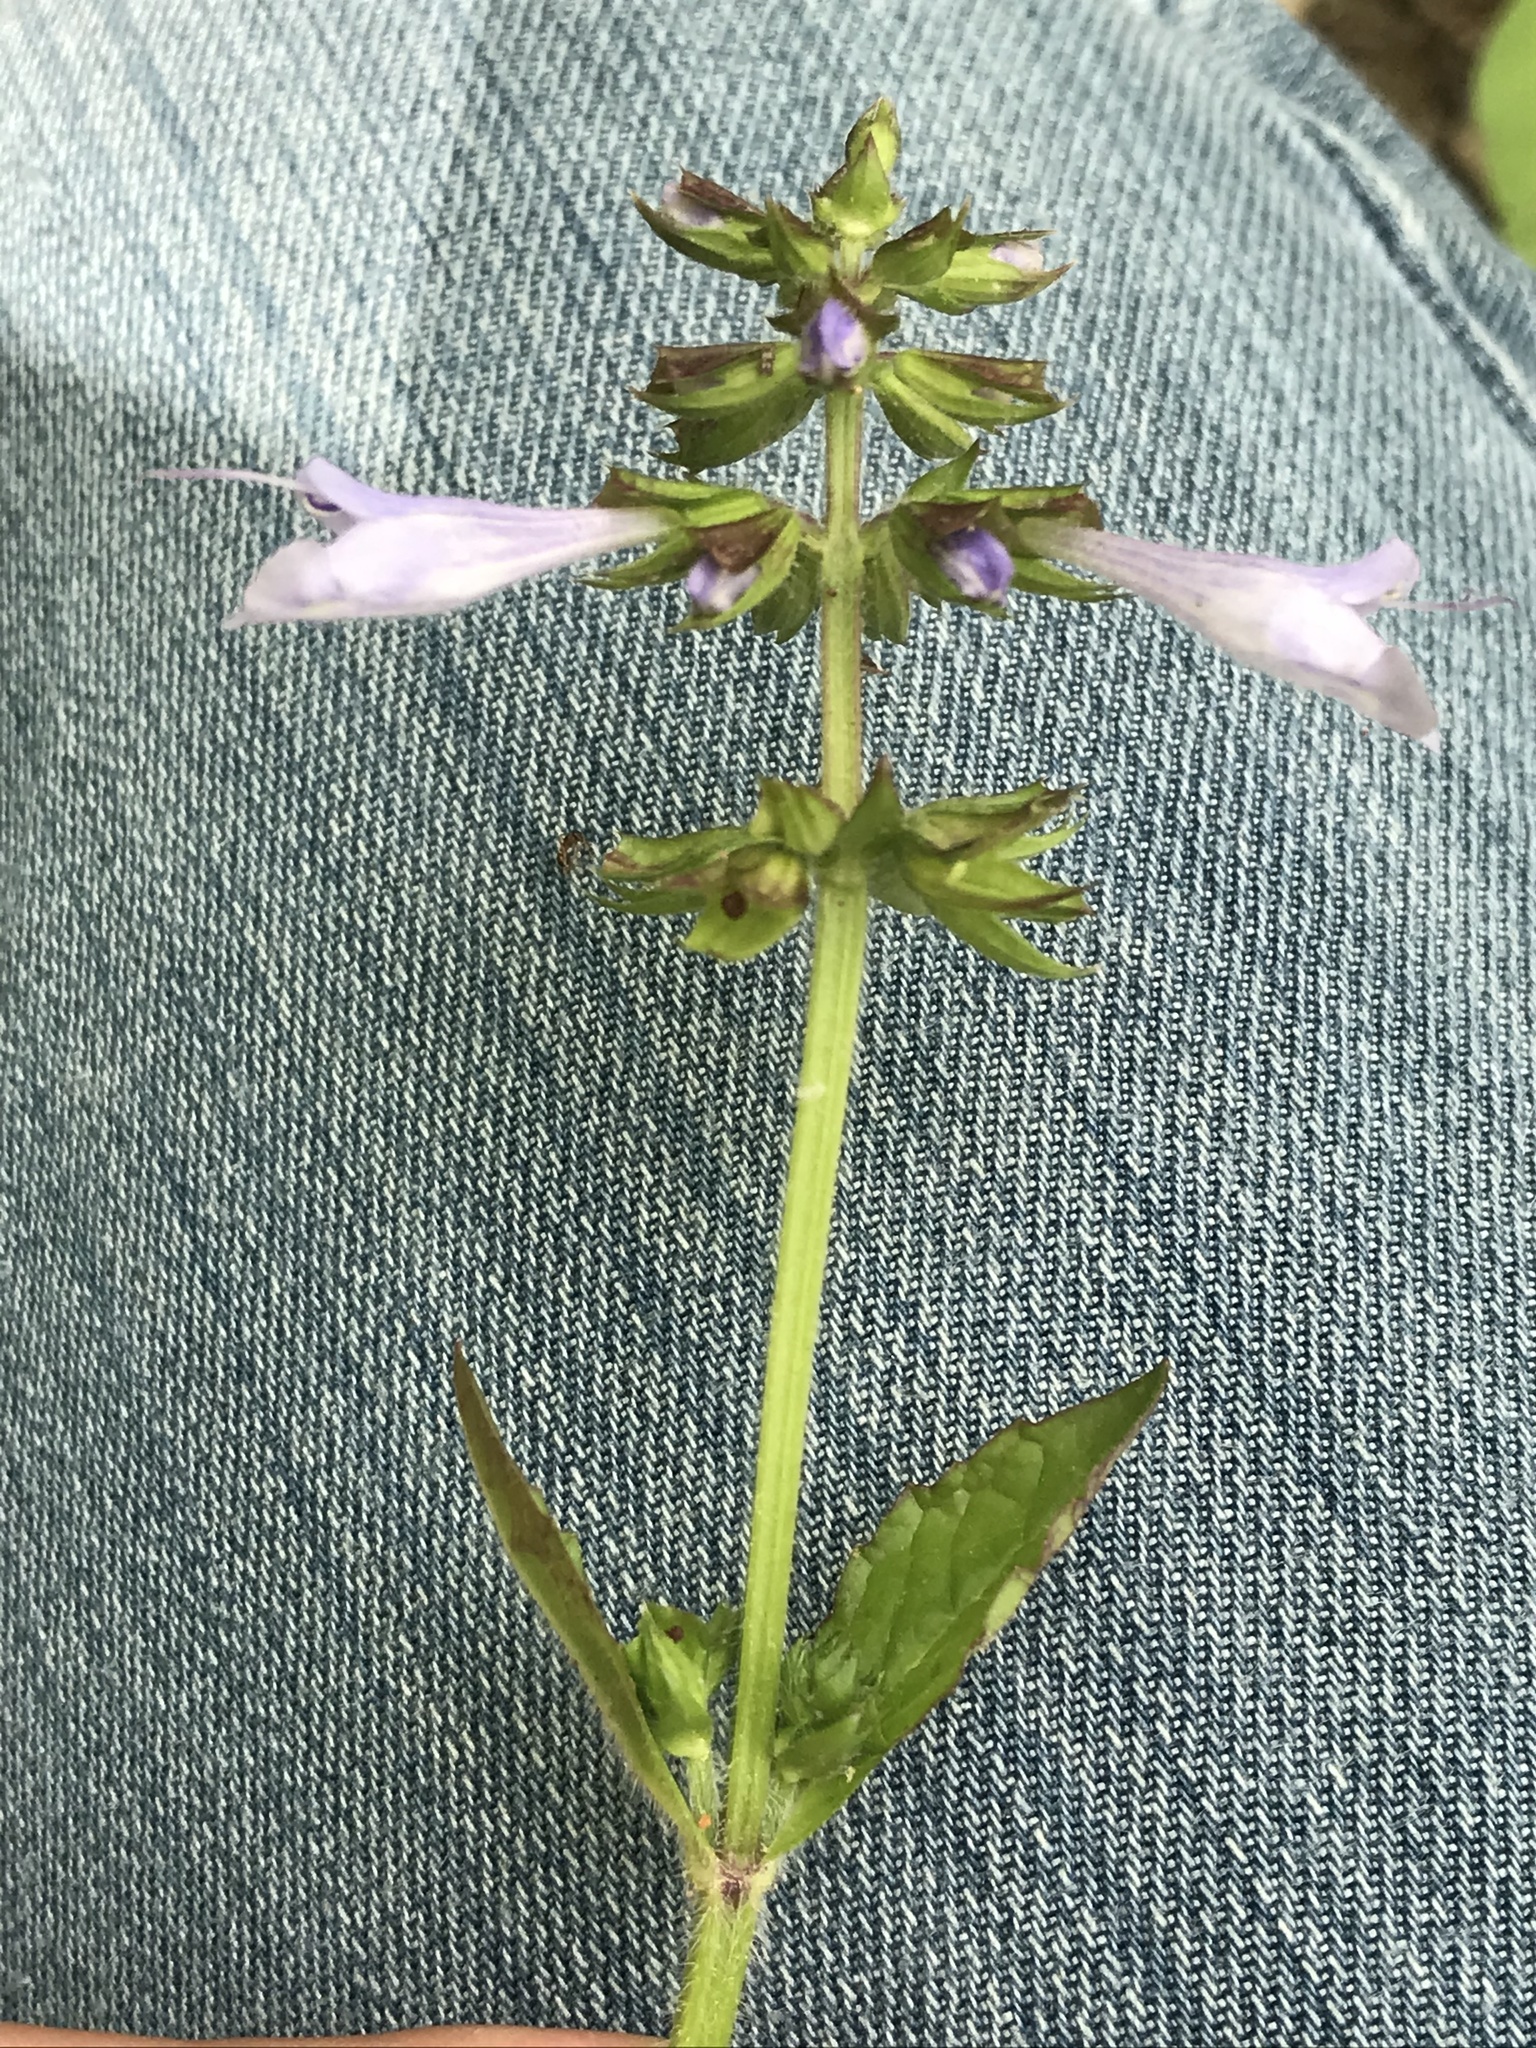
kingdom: Plantae
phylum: Tracheophyta
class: Magnoliopsida
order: Lamiales
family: Lamiaceae
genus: Salvia
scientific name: Salvia lyrata
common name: Cancerweed
